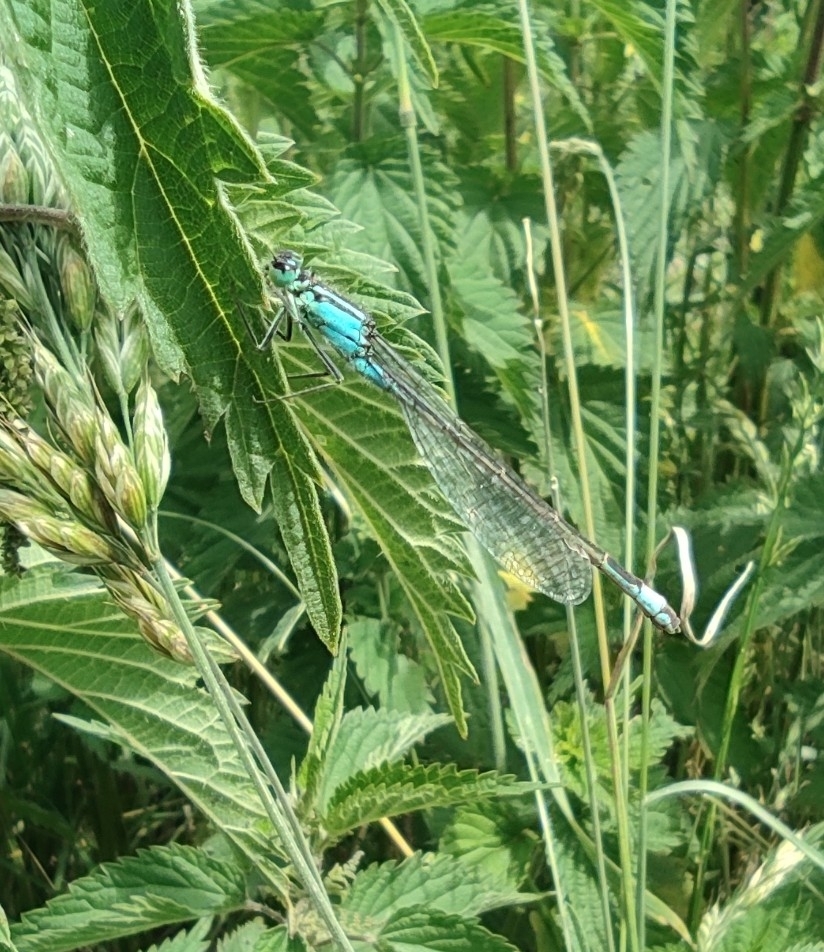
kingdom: Animalia
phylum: Arthropoda
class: Insecta
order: Odonata
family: Coenagrionidae
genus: Ischnura
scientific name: Ischnura elegans
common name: Blue-tailed damselfly
